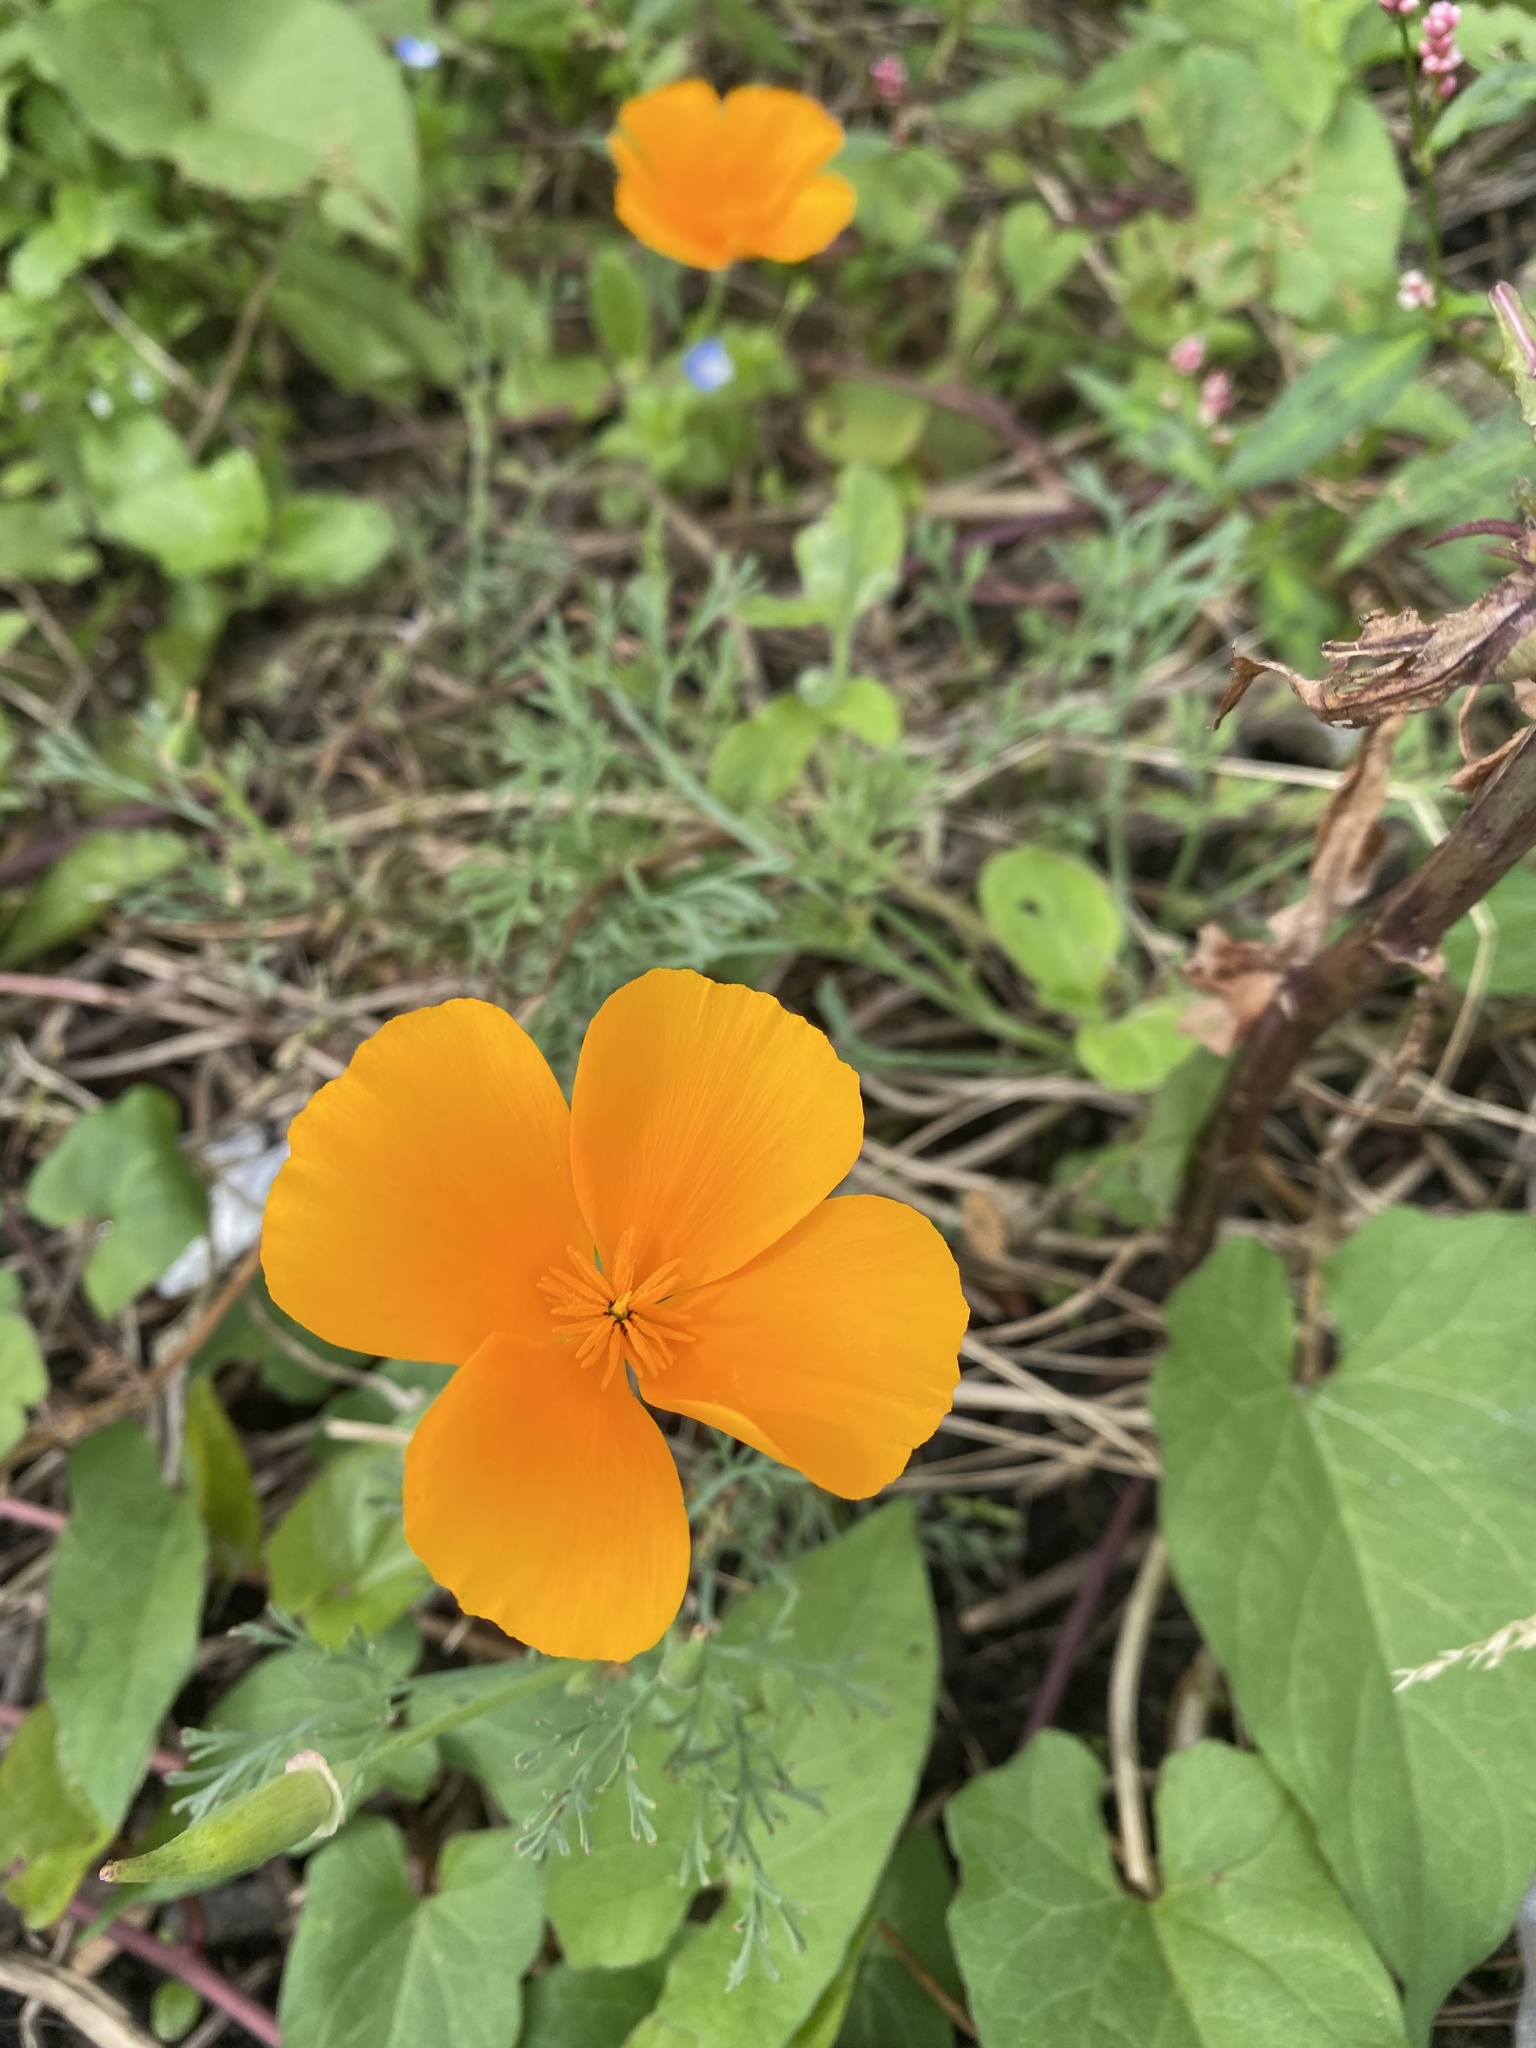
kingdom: Plantae
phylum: Tracheophyta
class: Magnoliopsida
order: Ranunculales
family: Papaveraceae
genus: Eschscholzia
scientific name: Eschscholzia californica
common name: California poppy
